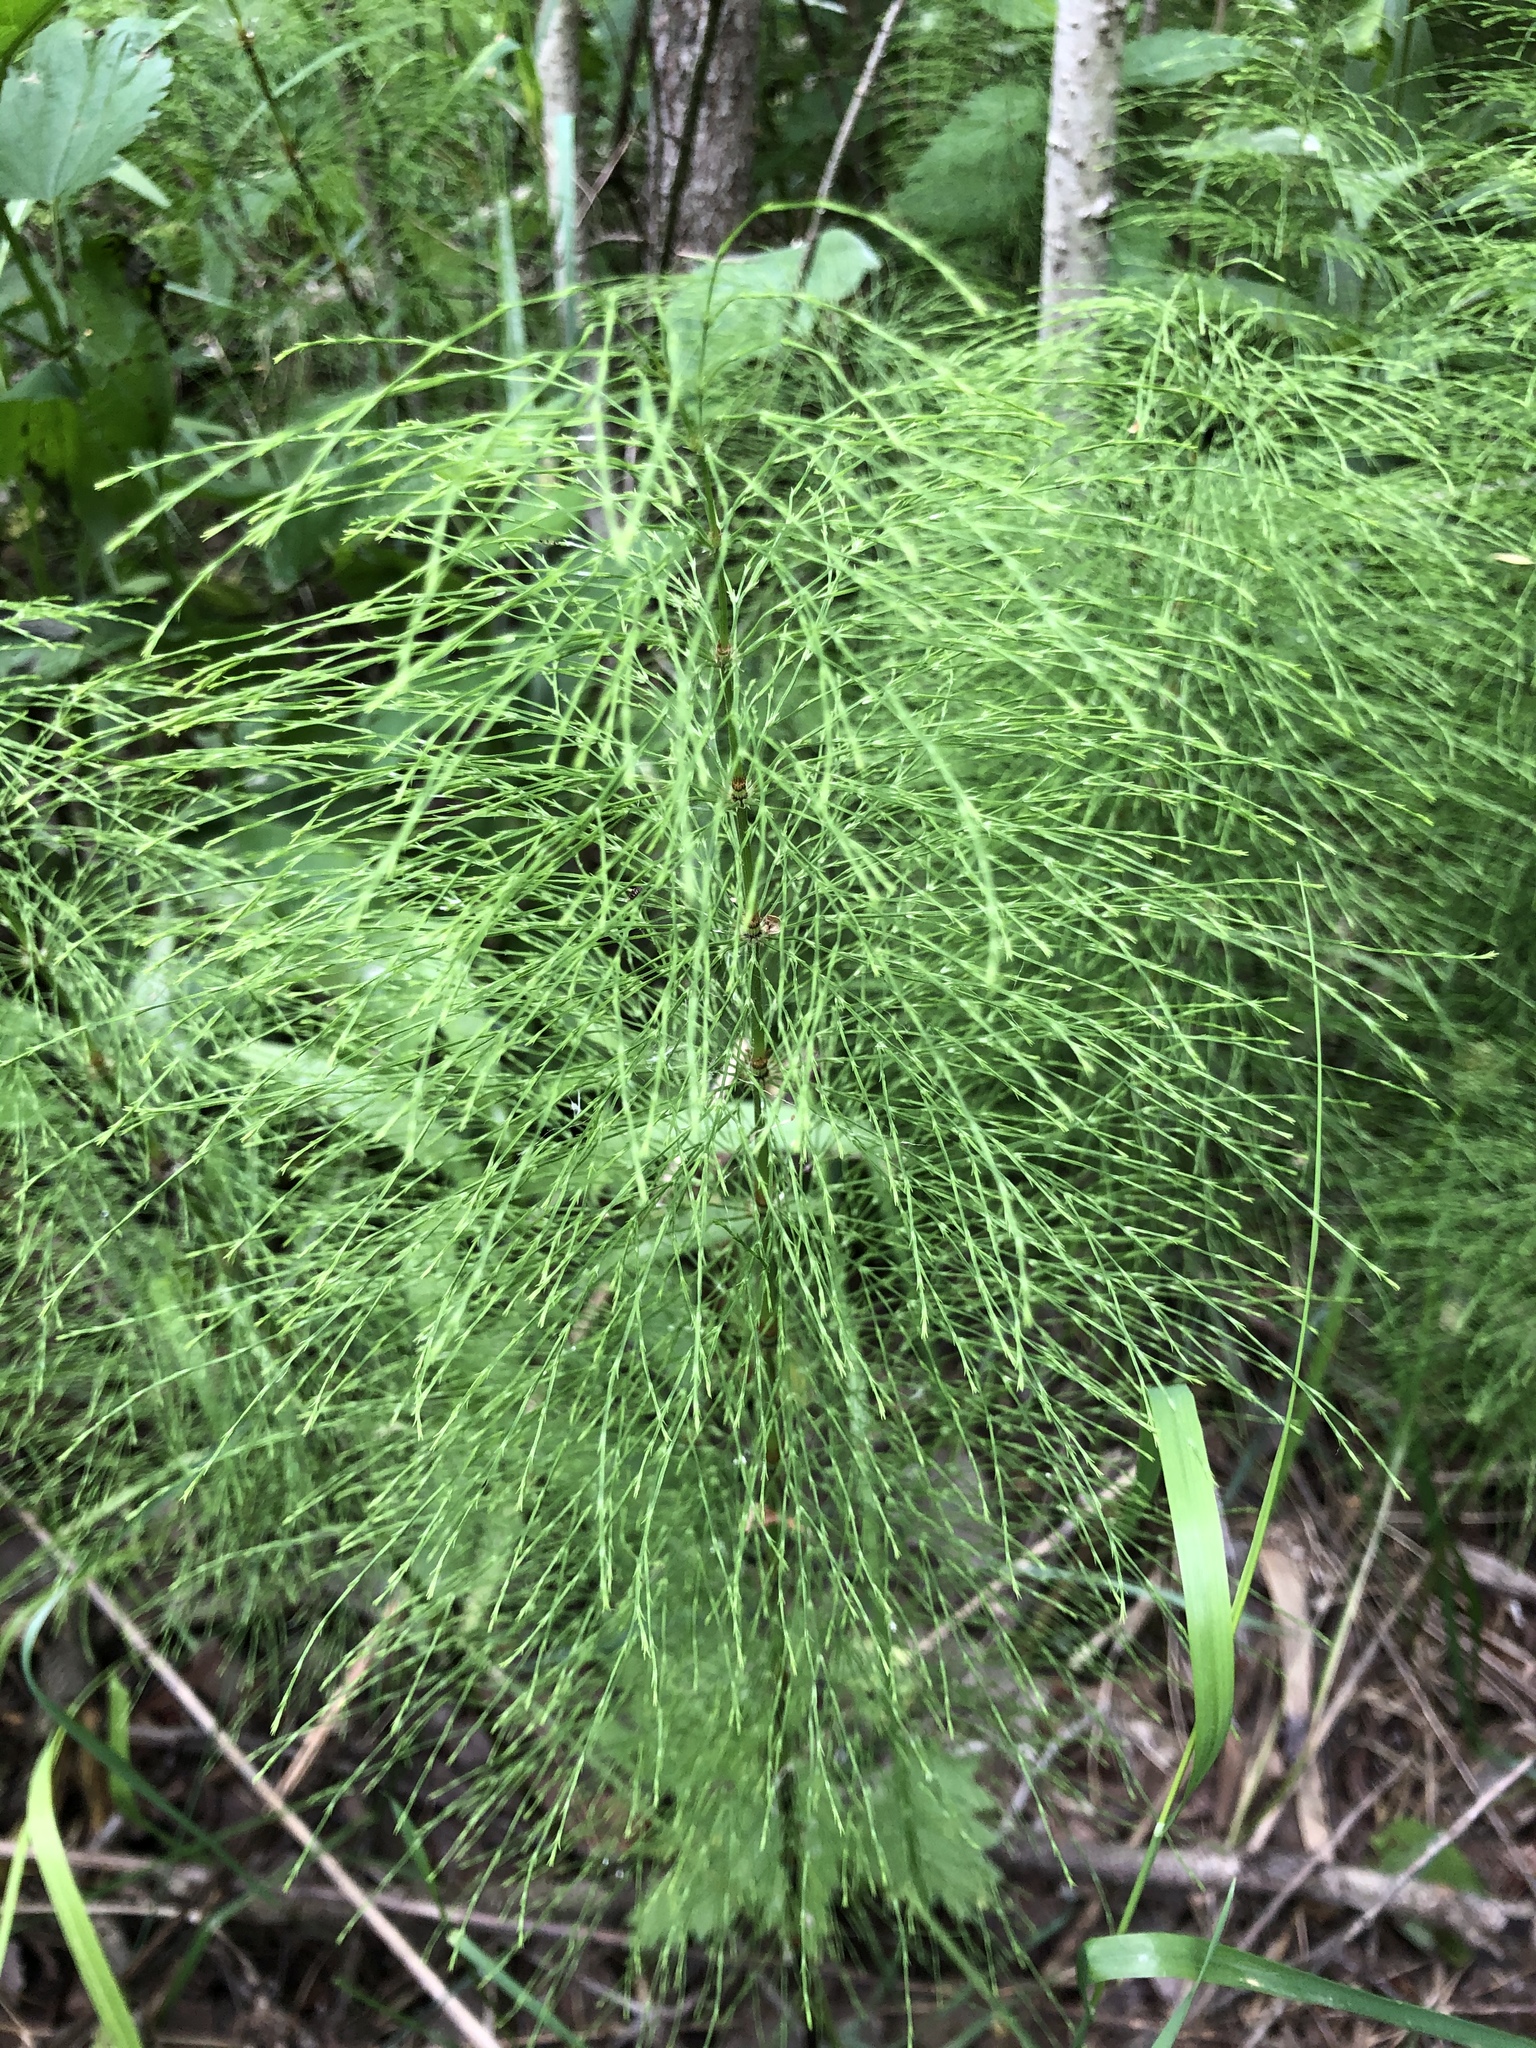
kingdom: Plantae
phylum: Tracheophyta
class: Polypodiopsida
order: Equisetales
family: Equisetaceae
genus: Equisetum
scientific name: Equisetum sylvaticum
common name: Wood horsetail
